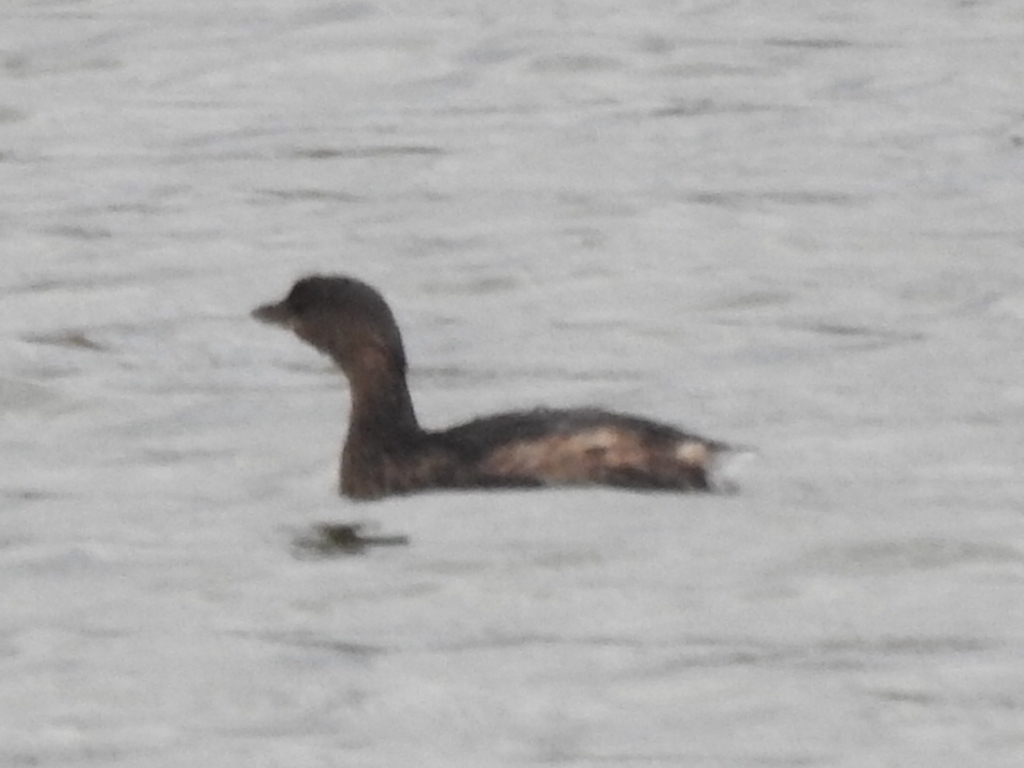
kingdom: Animalia
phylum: Chordata
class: Aves
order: Podicipediformes
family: Podicipedidae
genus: Podilymbus
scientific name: Podilymbus podiceps
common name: Pied-billed grebe
